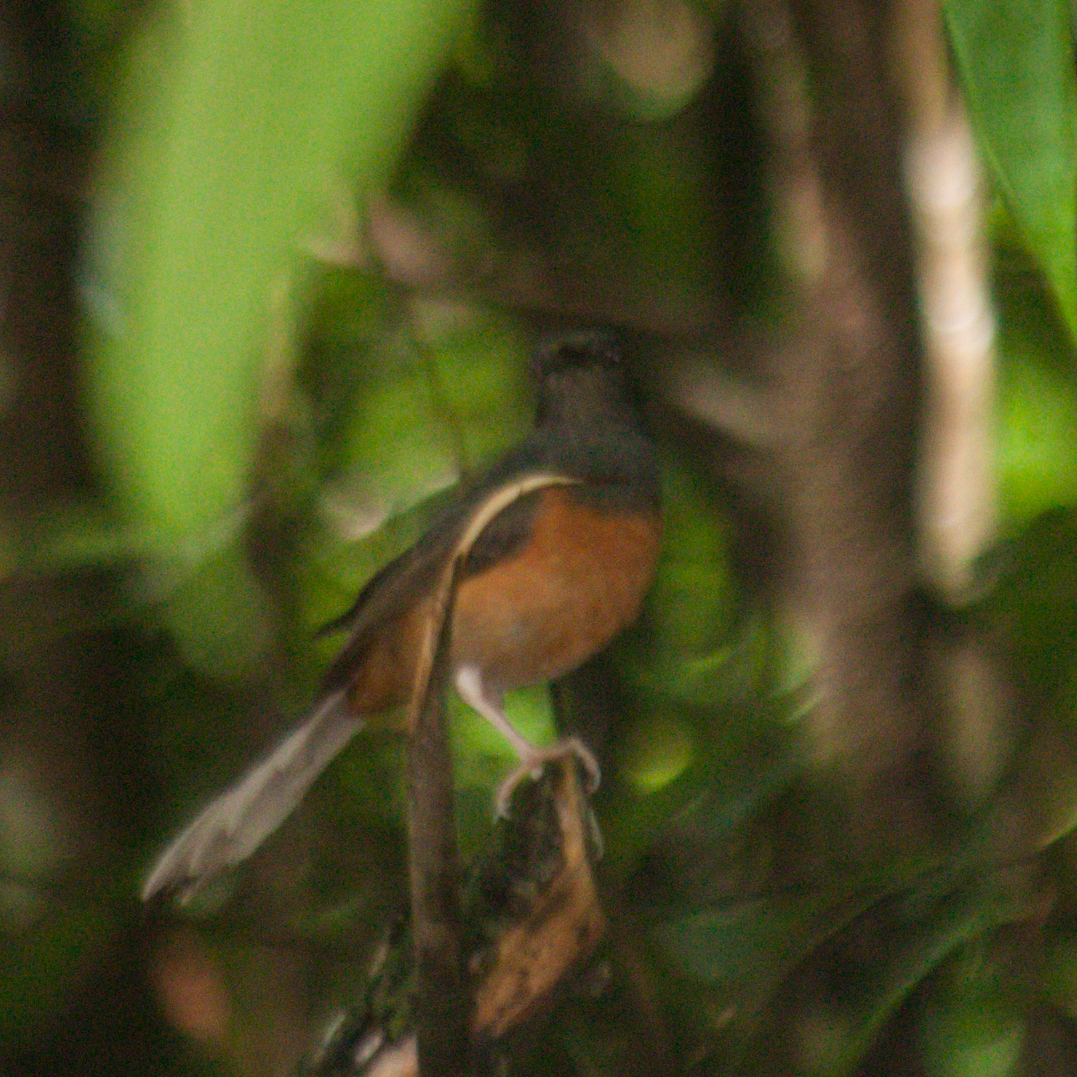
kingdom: Animalia
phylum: Chordata
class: Aves
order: Passeriformes
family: Muscicapidae
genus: Copsychus
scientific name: Copsychus malabaricus
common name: White-rumped shama
